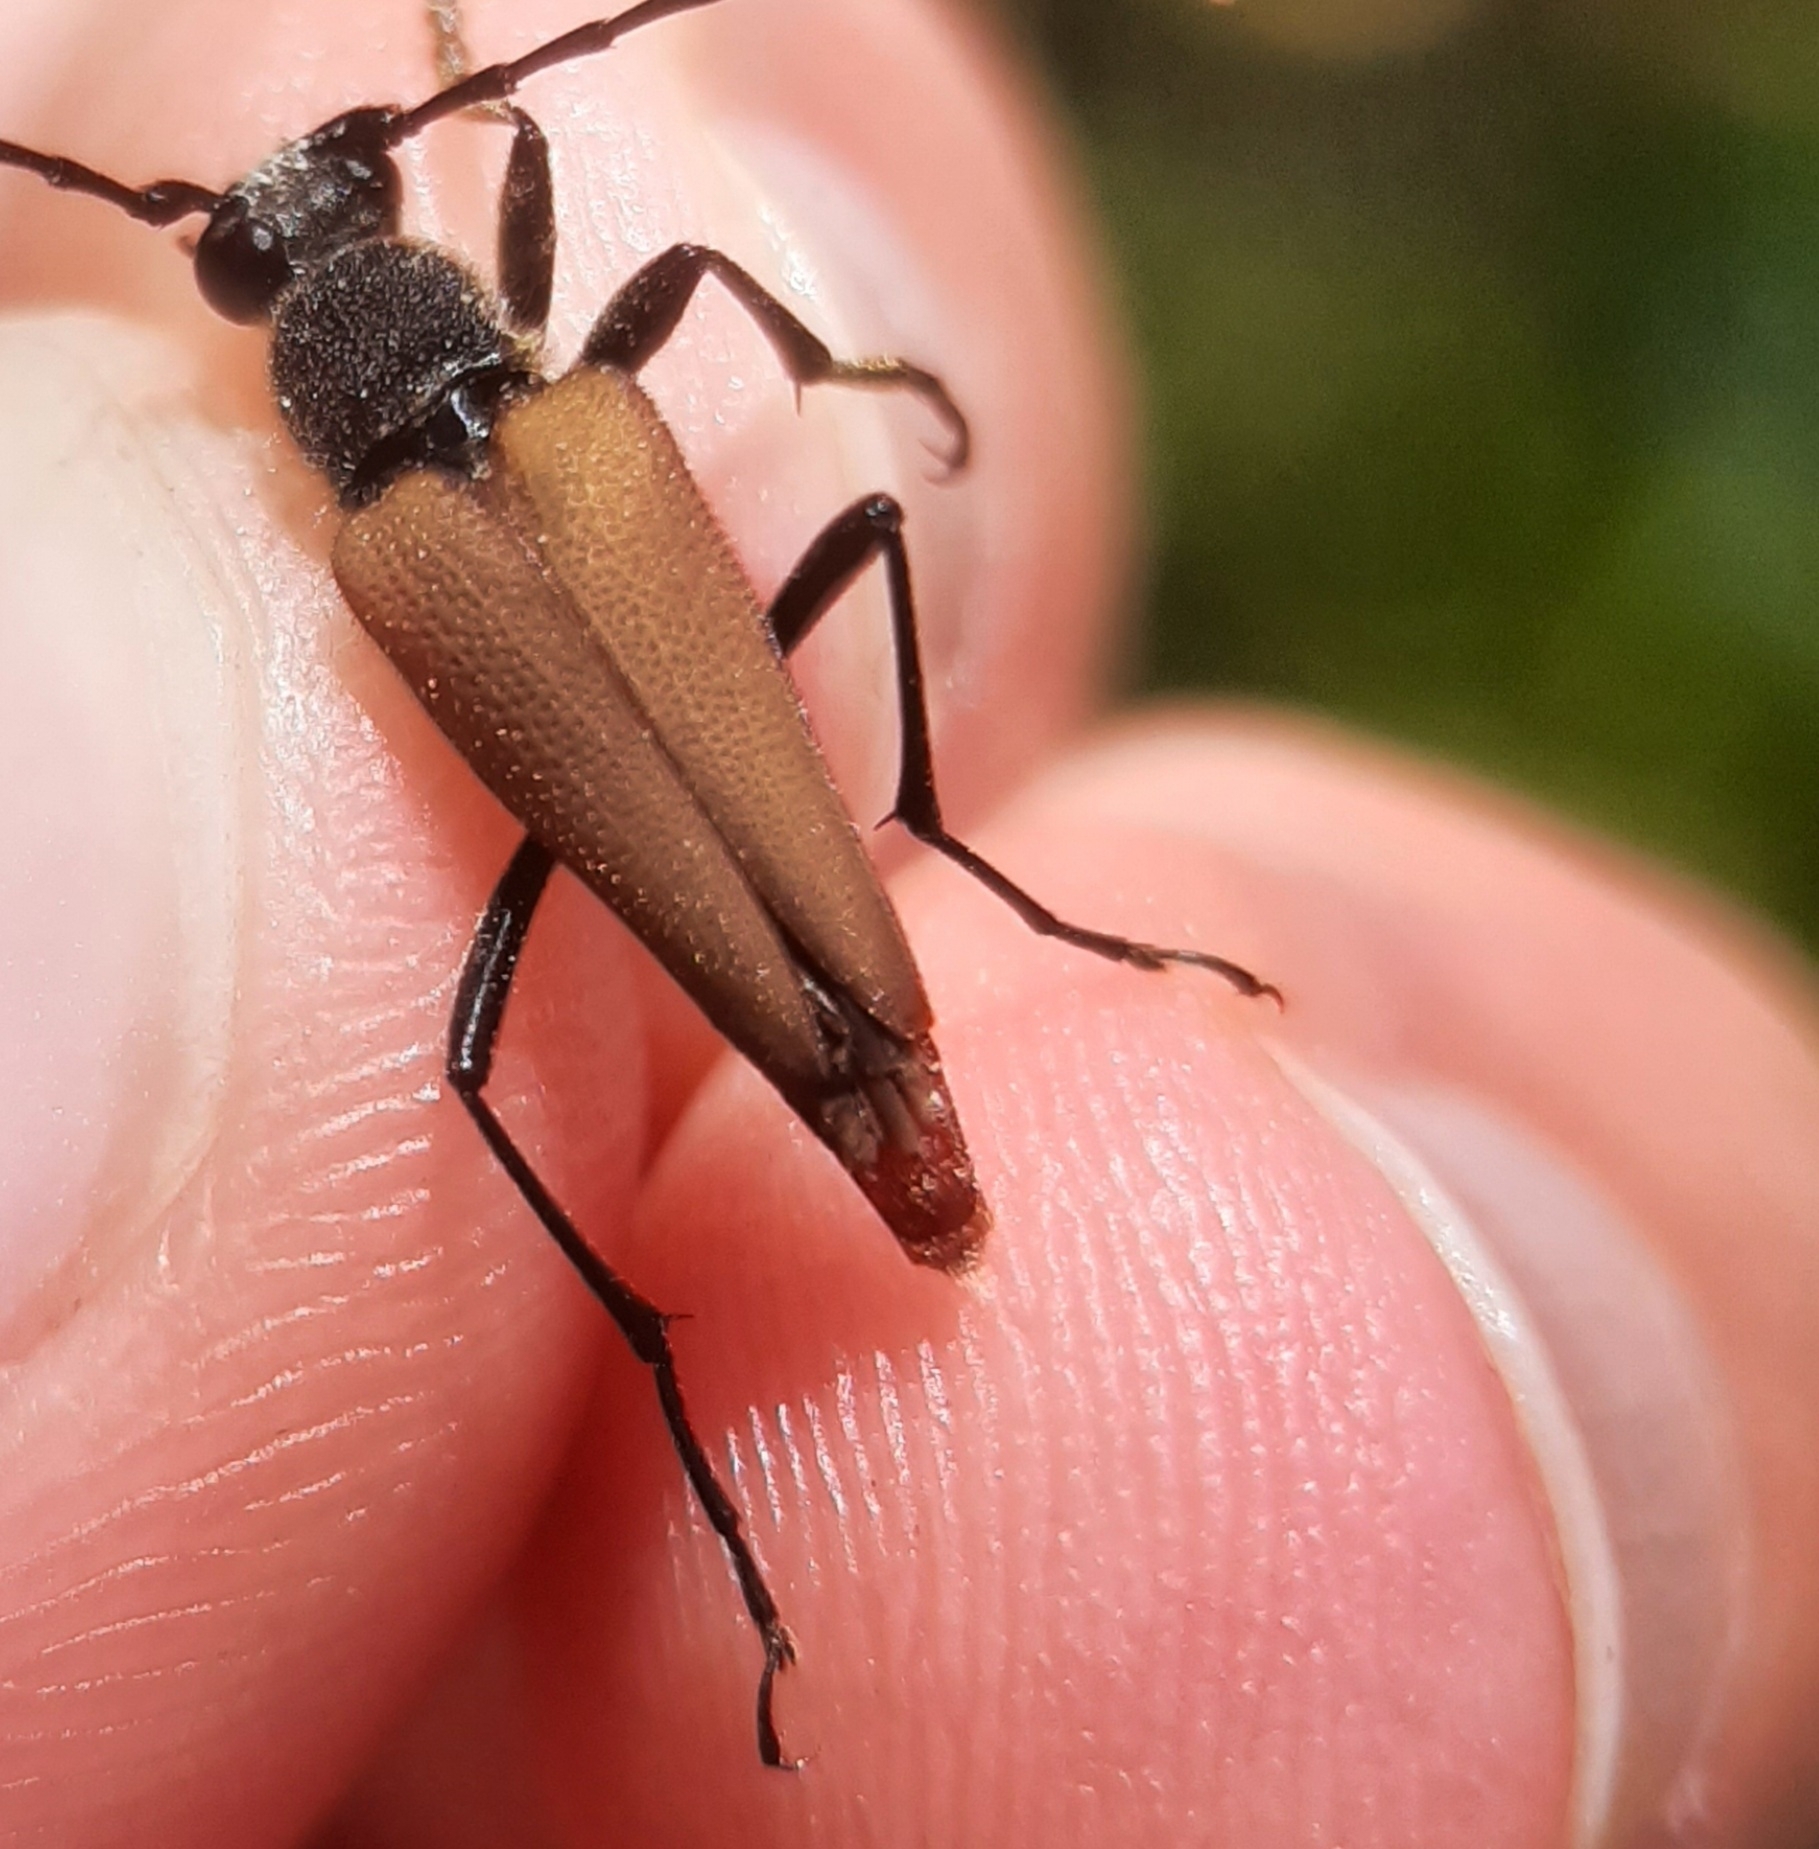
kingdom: Animalia
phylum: Arthropoda
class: Insecta
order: Coleoptera
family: Cerambycidae
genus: Brachyleptura
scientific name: Brachyleptura rubrica
